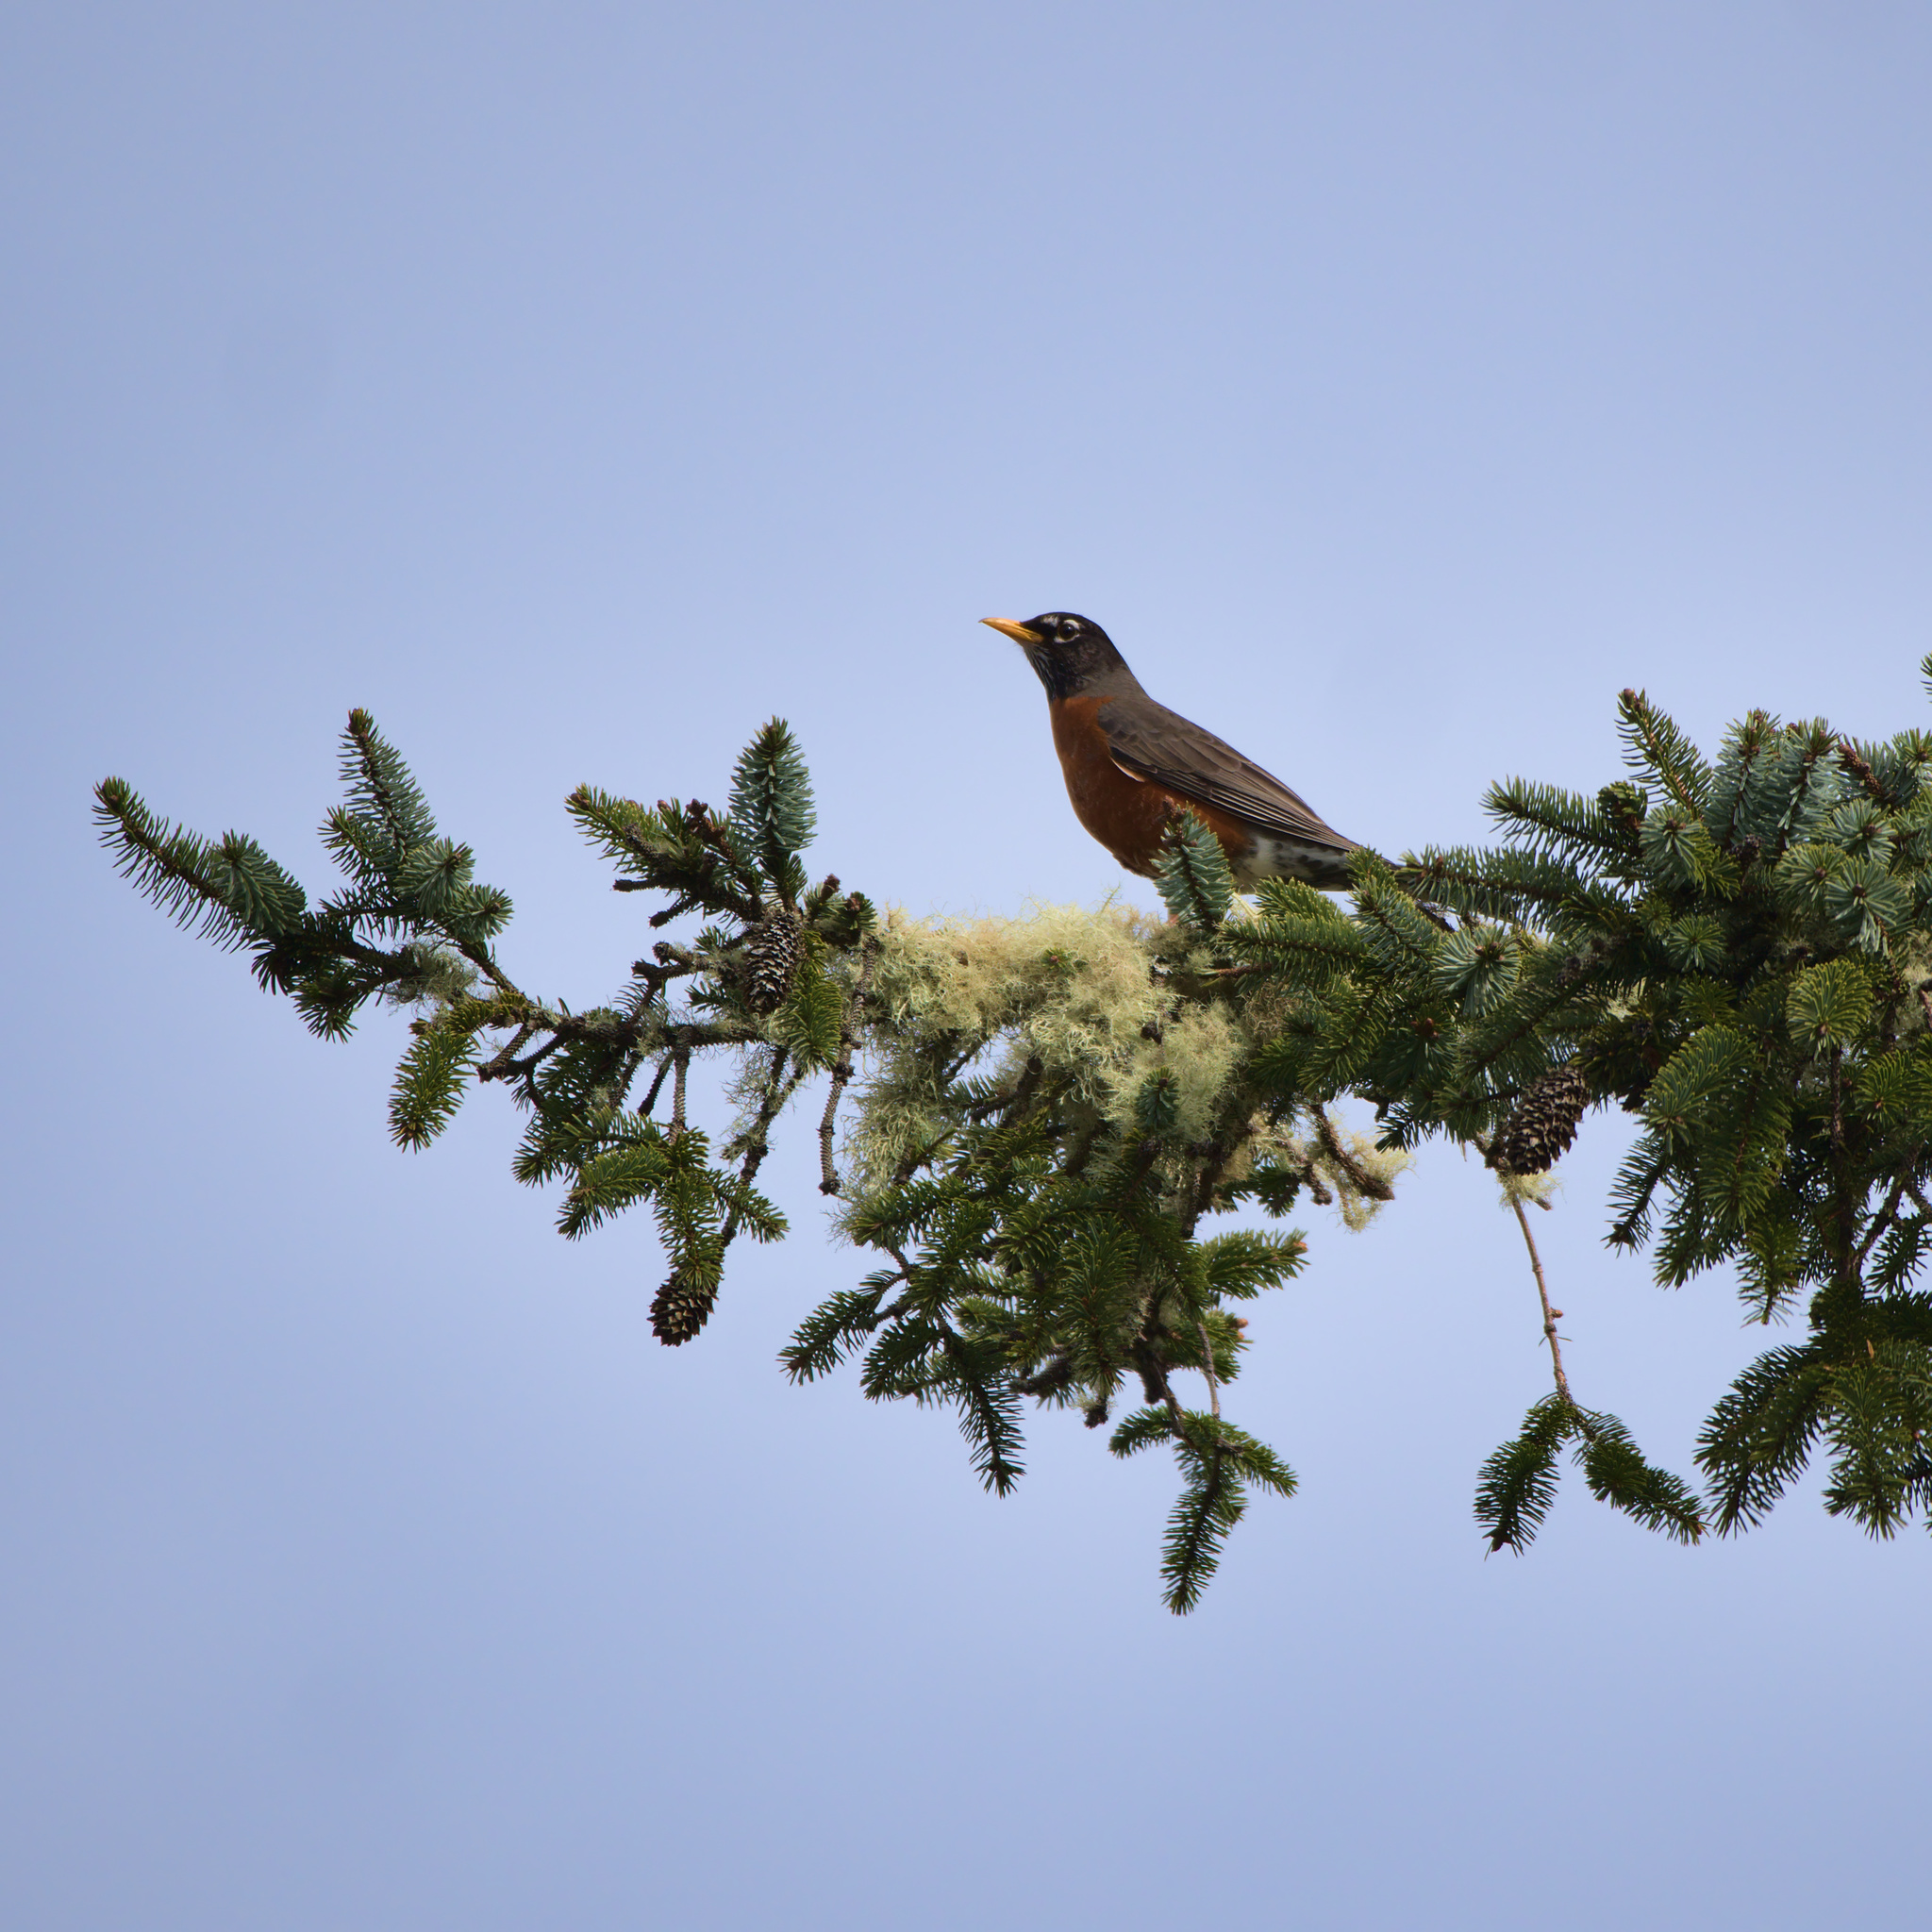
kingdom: Animalia
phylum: Chordata
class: Aves
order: Passeriformes
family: Turdidae
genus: Turdus
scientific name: Turdus migratorius
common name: American robin
